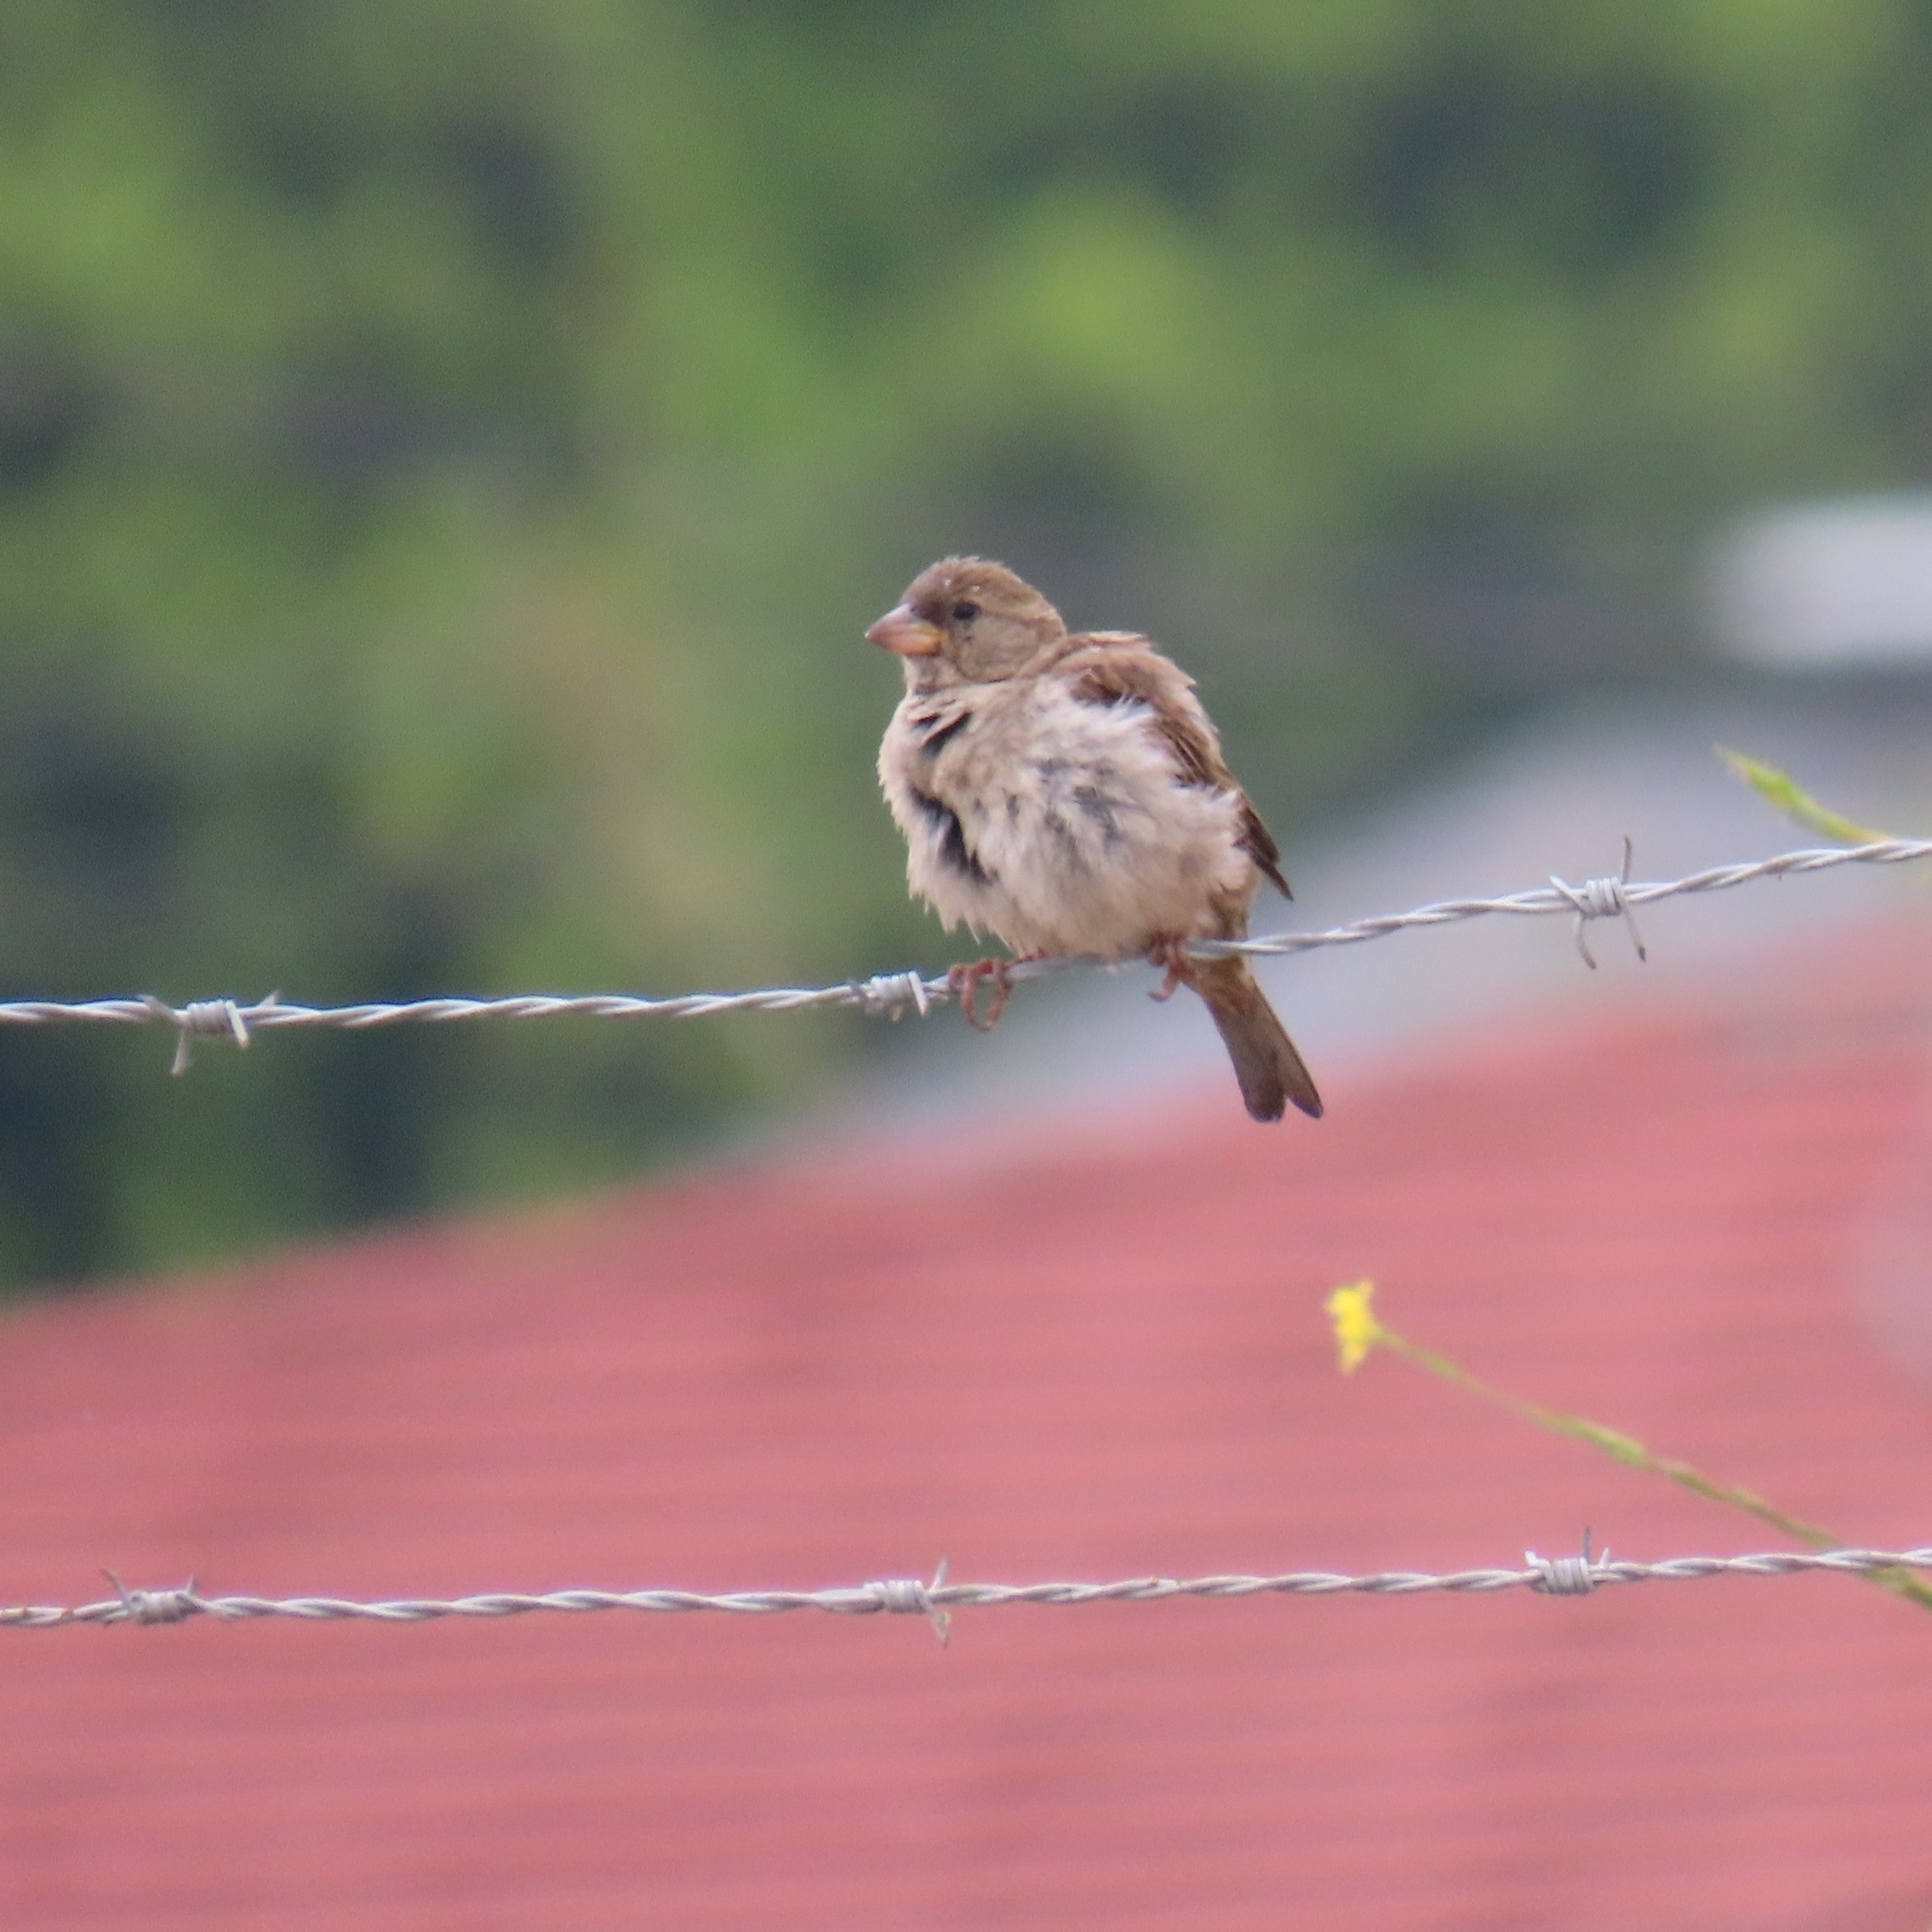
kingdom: Animalia
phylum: Chordata
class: Aves
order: Passeriformes
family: Passeridae
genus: Passer
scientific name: Passer domesticus
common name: House sparrow
